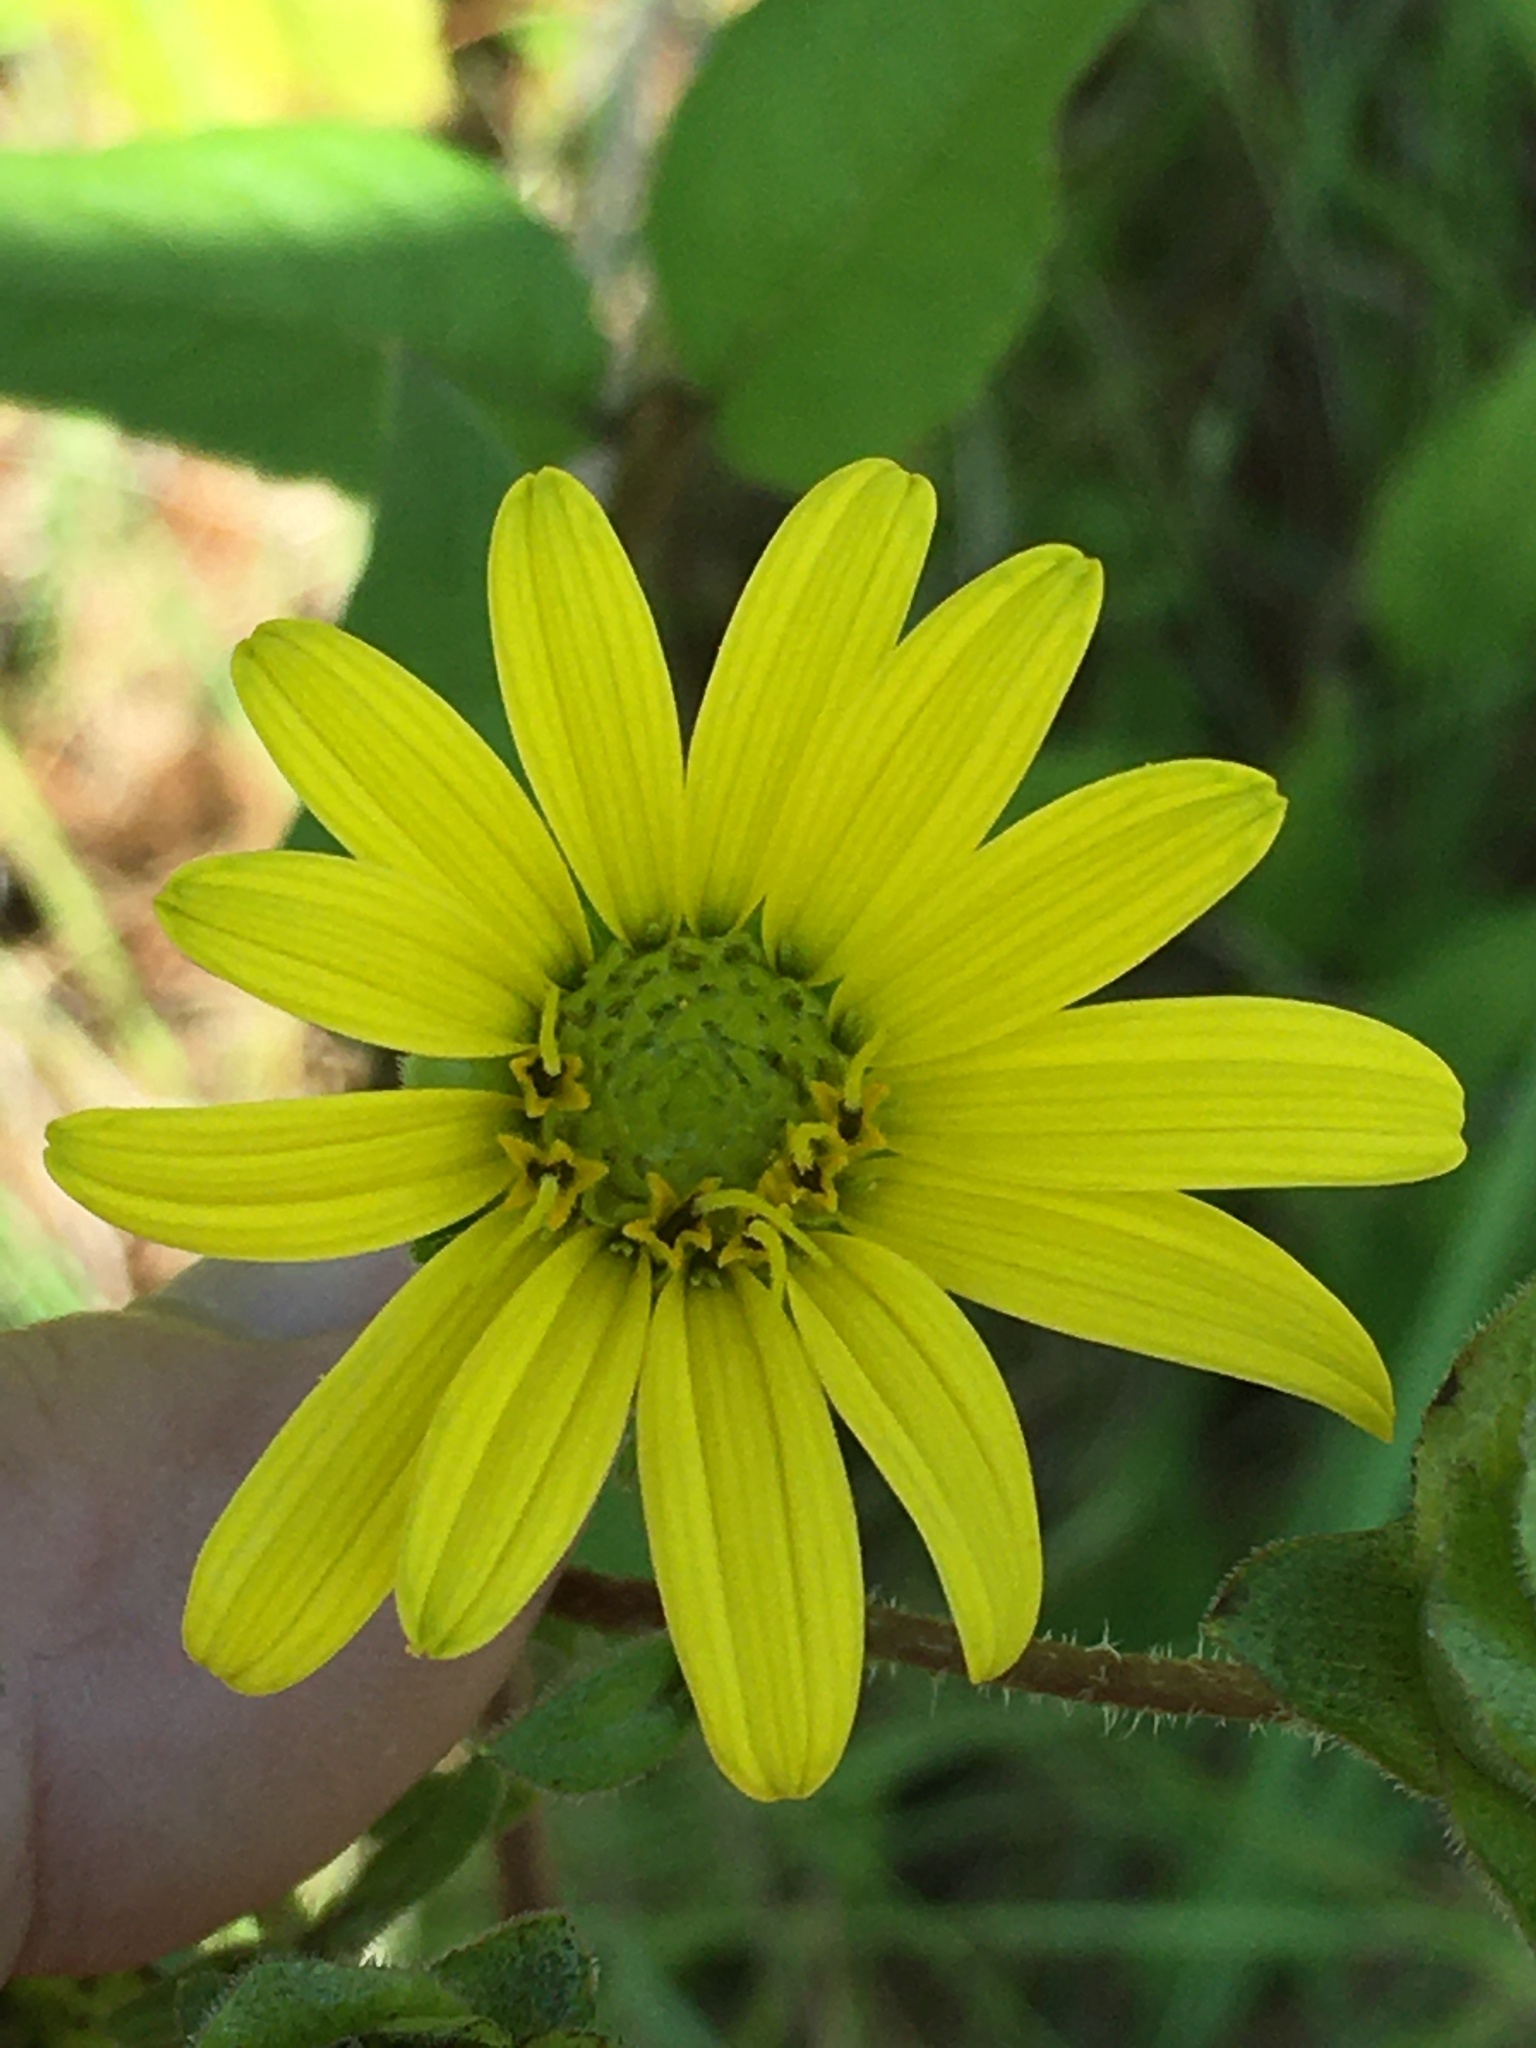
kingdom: Plantae
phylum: Tracheophyta
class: Magnoliopsida
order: Asterales
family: Asteraceae
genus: Silphium
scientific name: Silphium asteriscus
